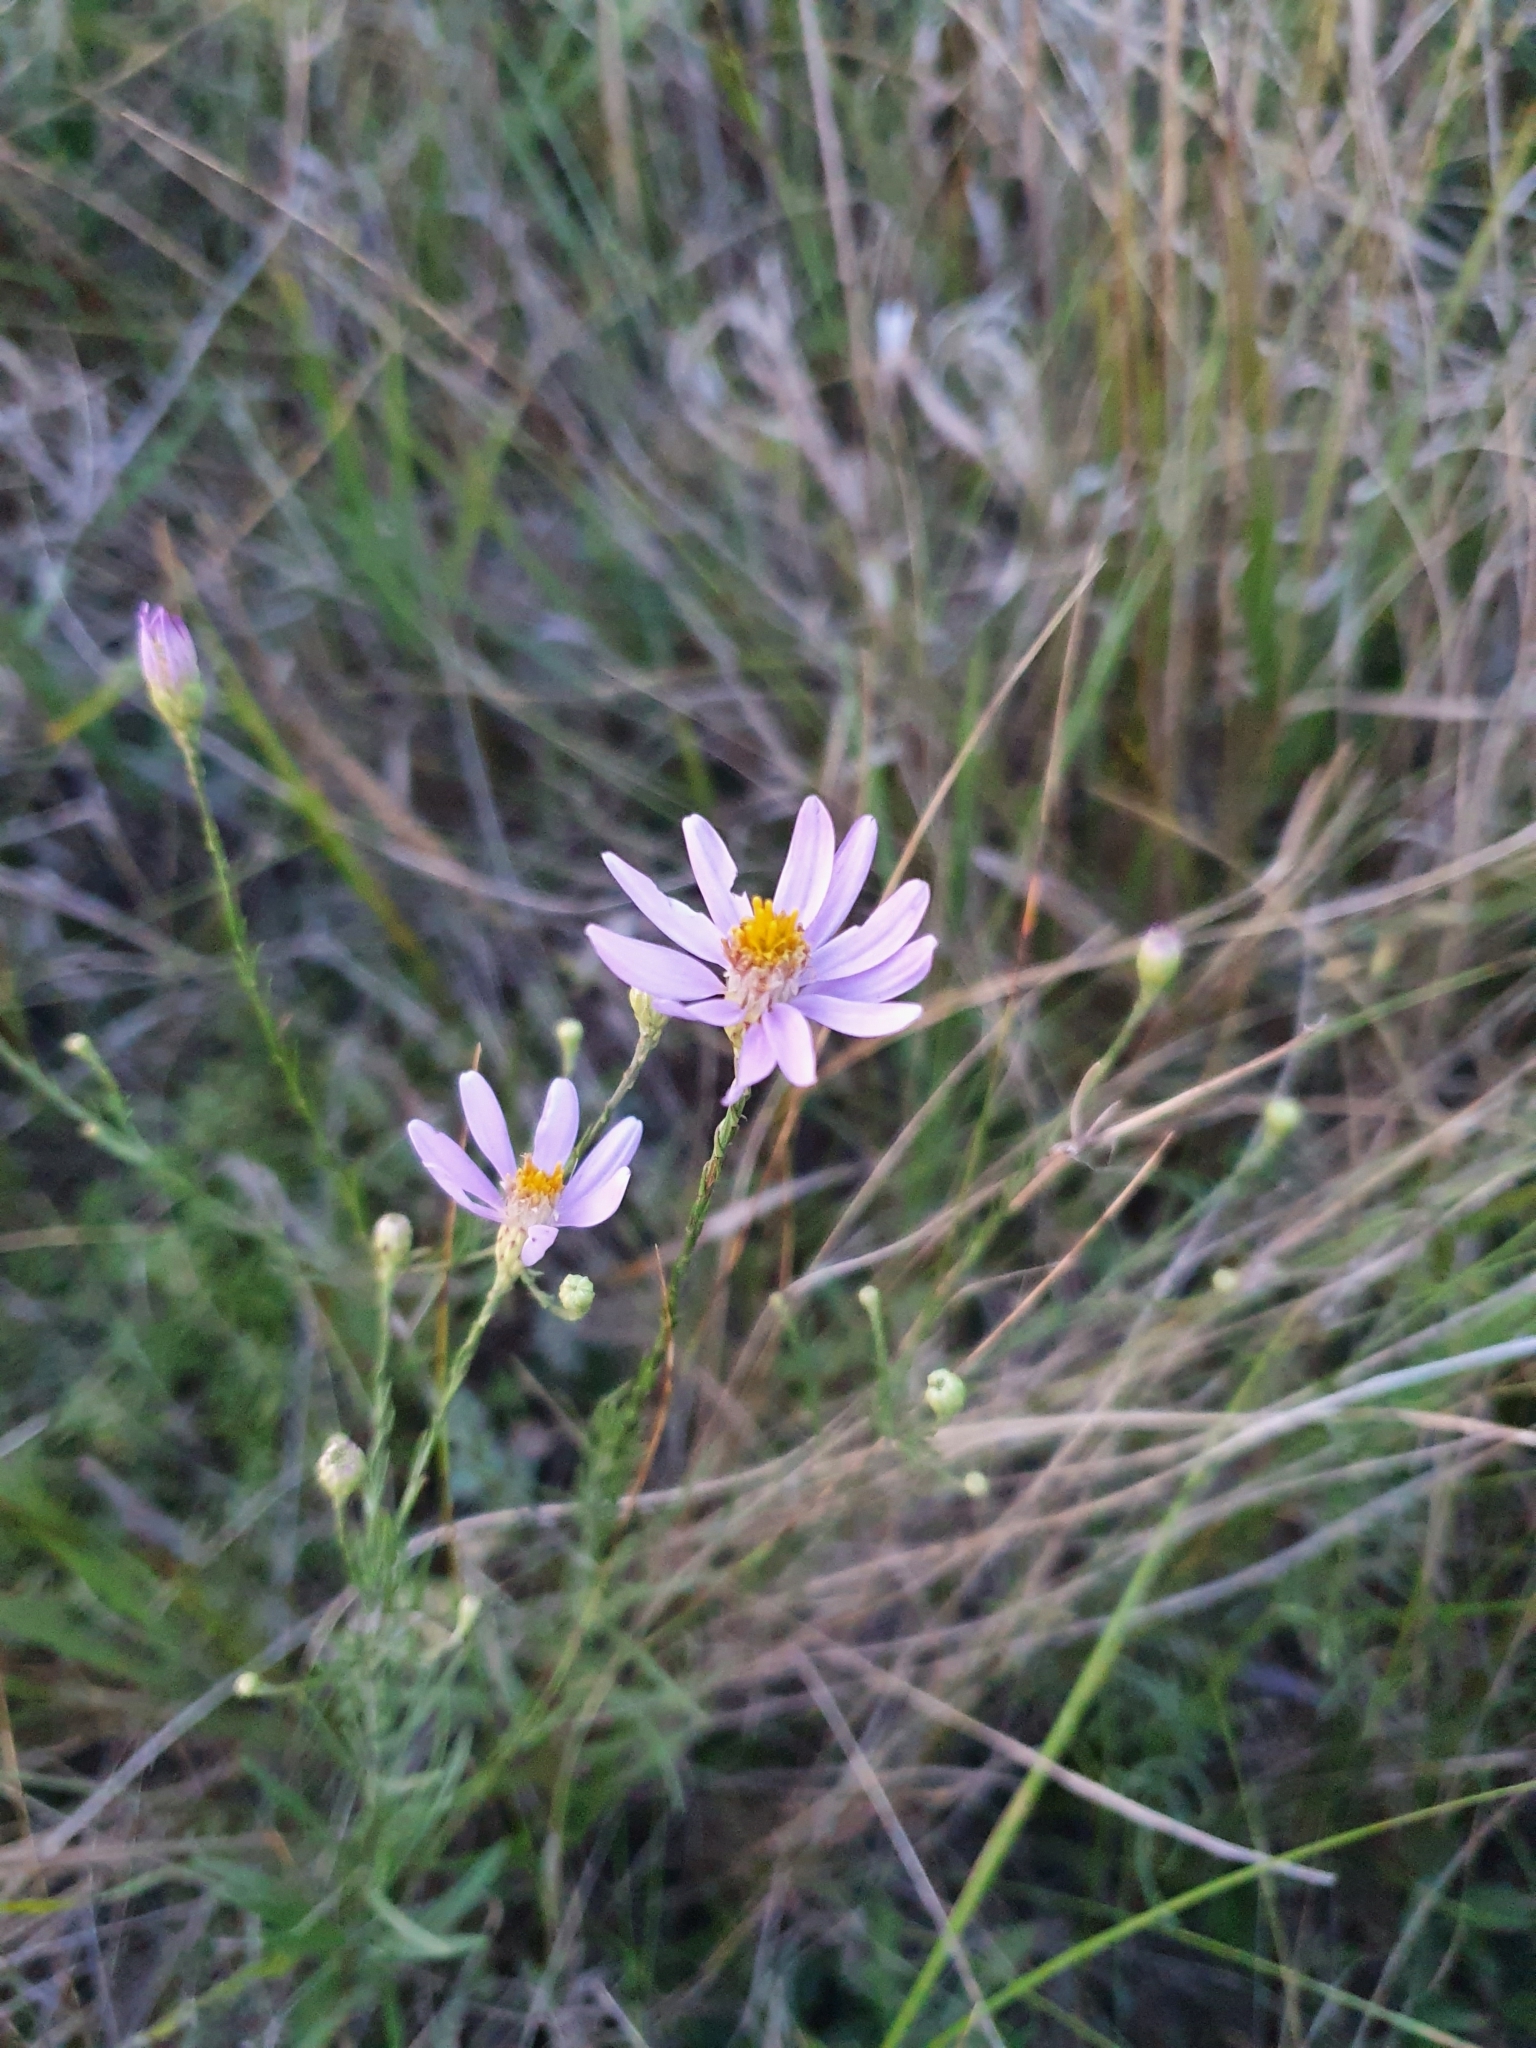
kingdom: Plantae
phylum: Tracheophyta
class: Magnoliopsida
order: Asterales
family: Asteraceae
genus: Galatella
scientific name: Galatella angustissima
